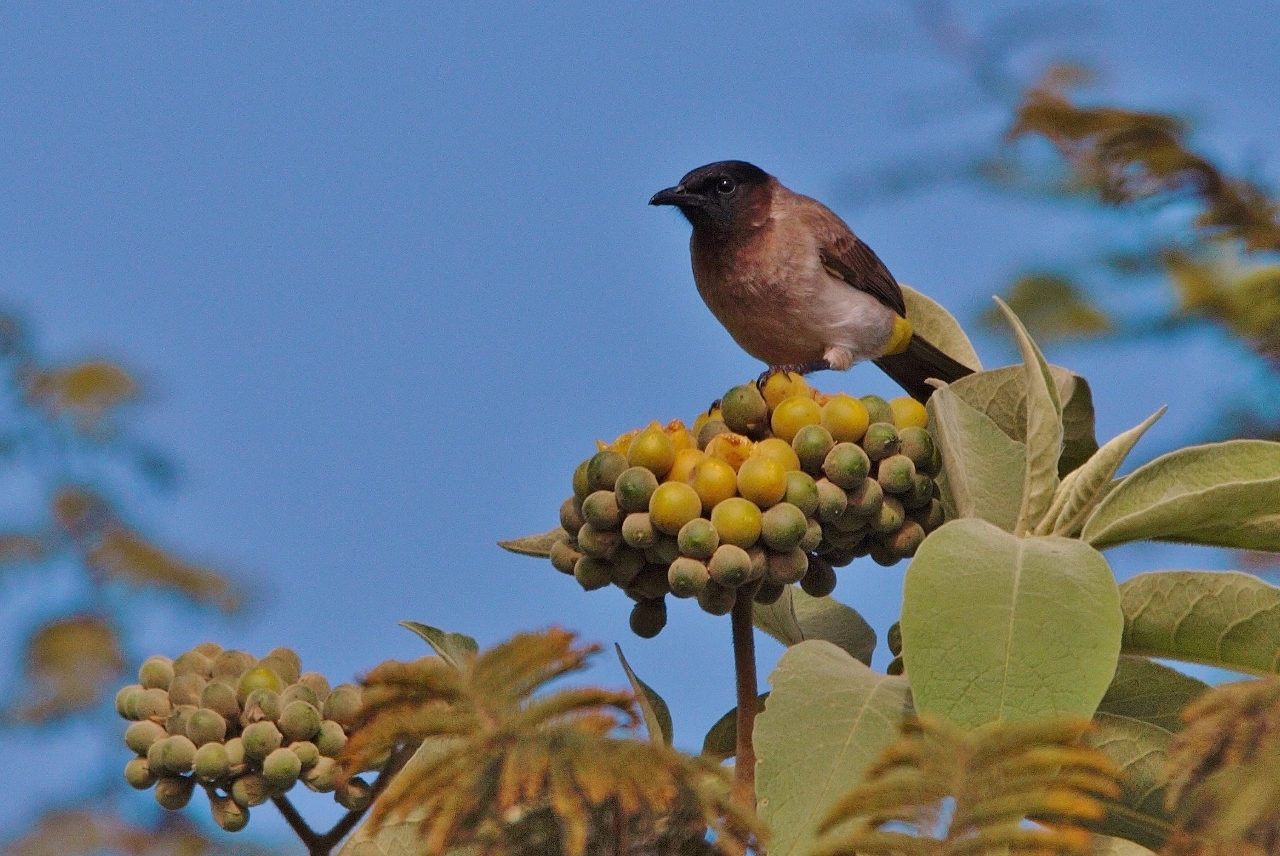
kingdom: Animalia
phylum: Chordata
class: Aves
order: Passeriformes
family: Pycnonotidae
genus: Pycnonotus
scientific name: Pycnonotus barbatus
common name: Common bulbul
